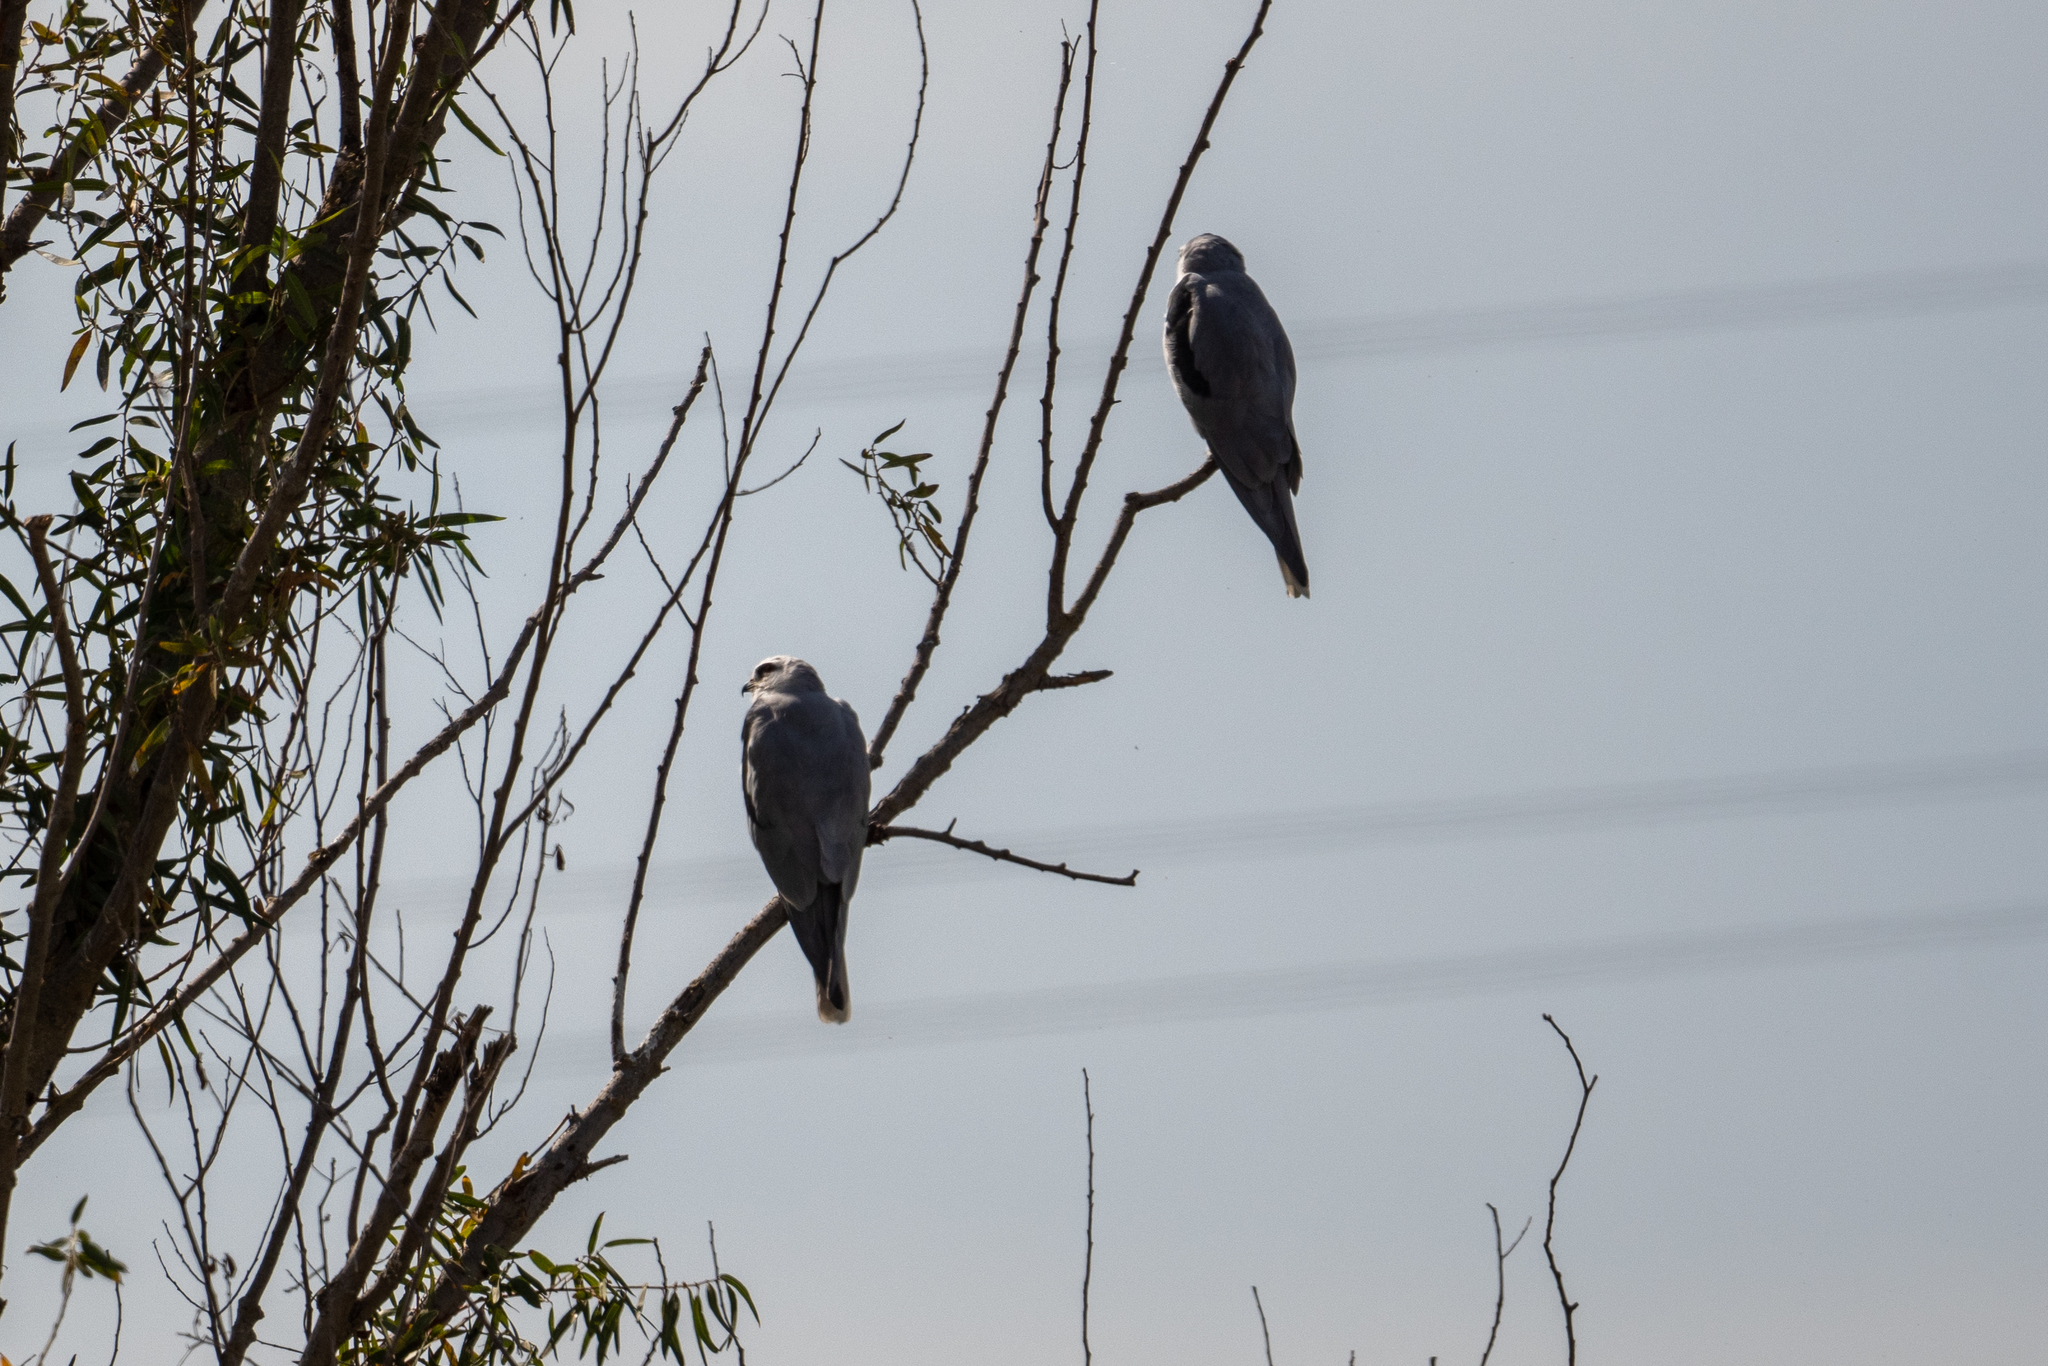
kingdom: Animalia
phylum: Chordata
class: Aves
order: Accipitriformes
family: Accipitridae
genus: Elanus
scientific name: Elanus leucurus
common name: White-tailed kite
